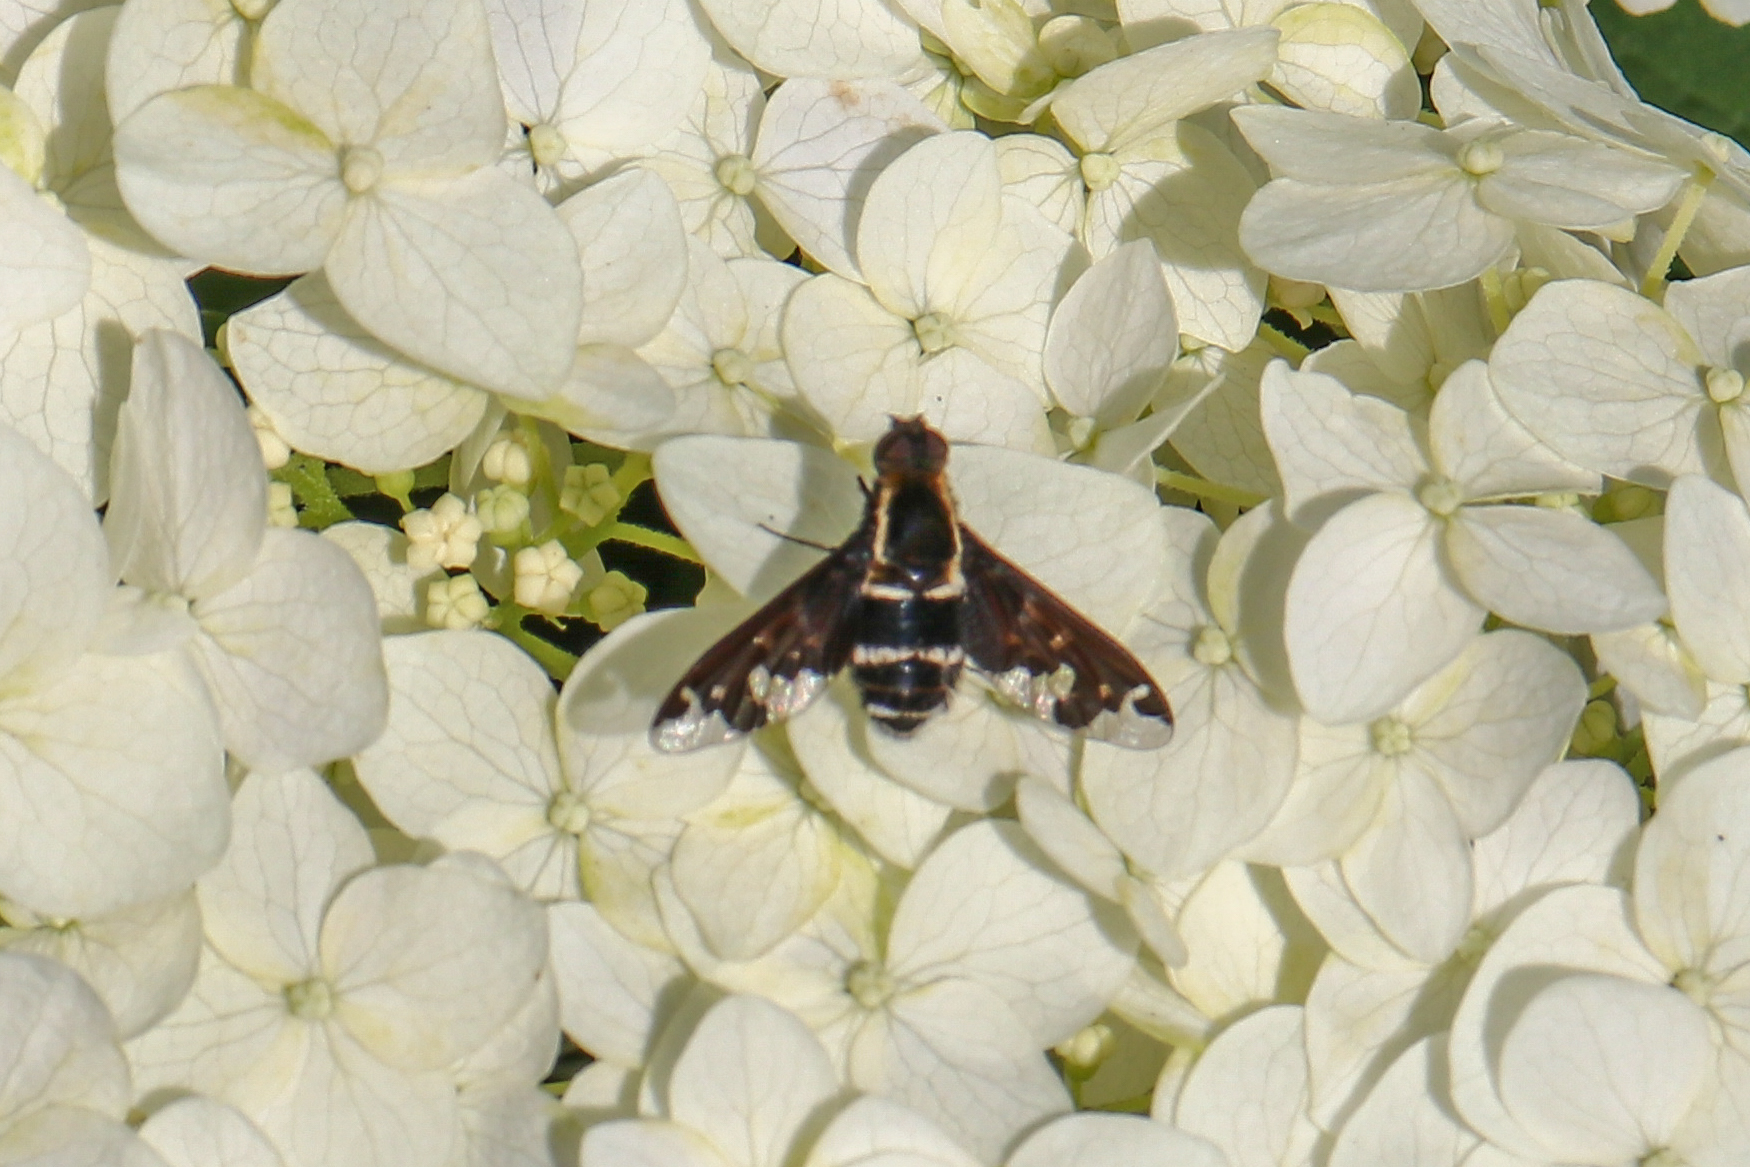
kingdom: Animalia
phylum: Arthropoda
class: Insecta
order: Diptera
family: Bombyliidae
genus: Hemipenthes
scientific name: Hemipenthes maura
